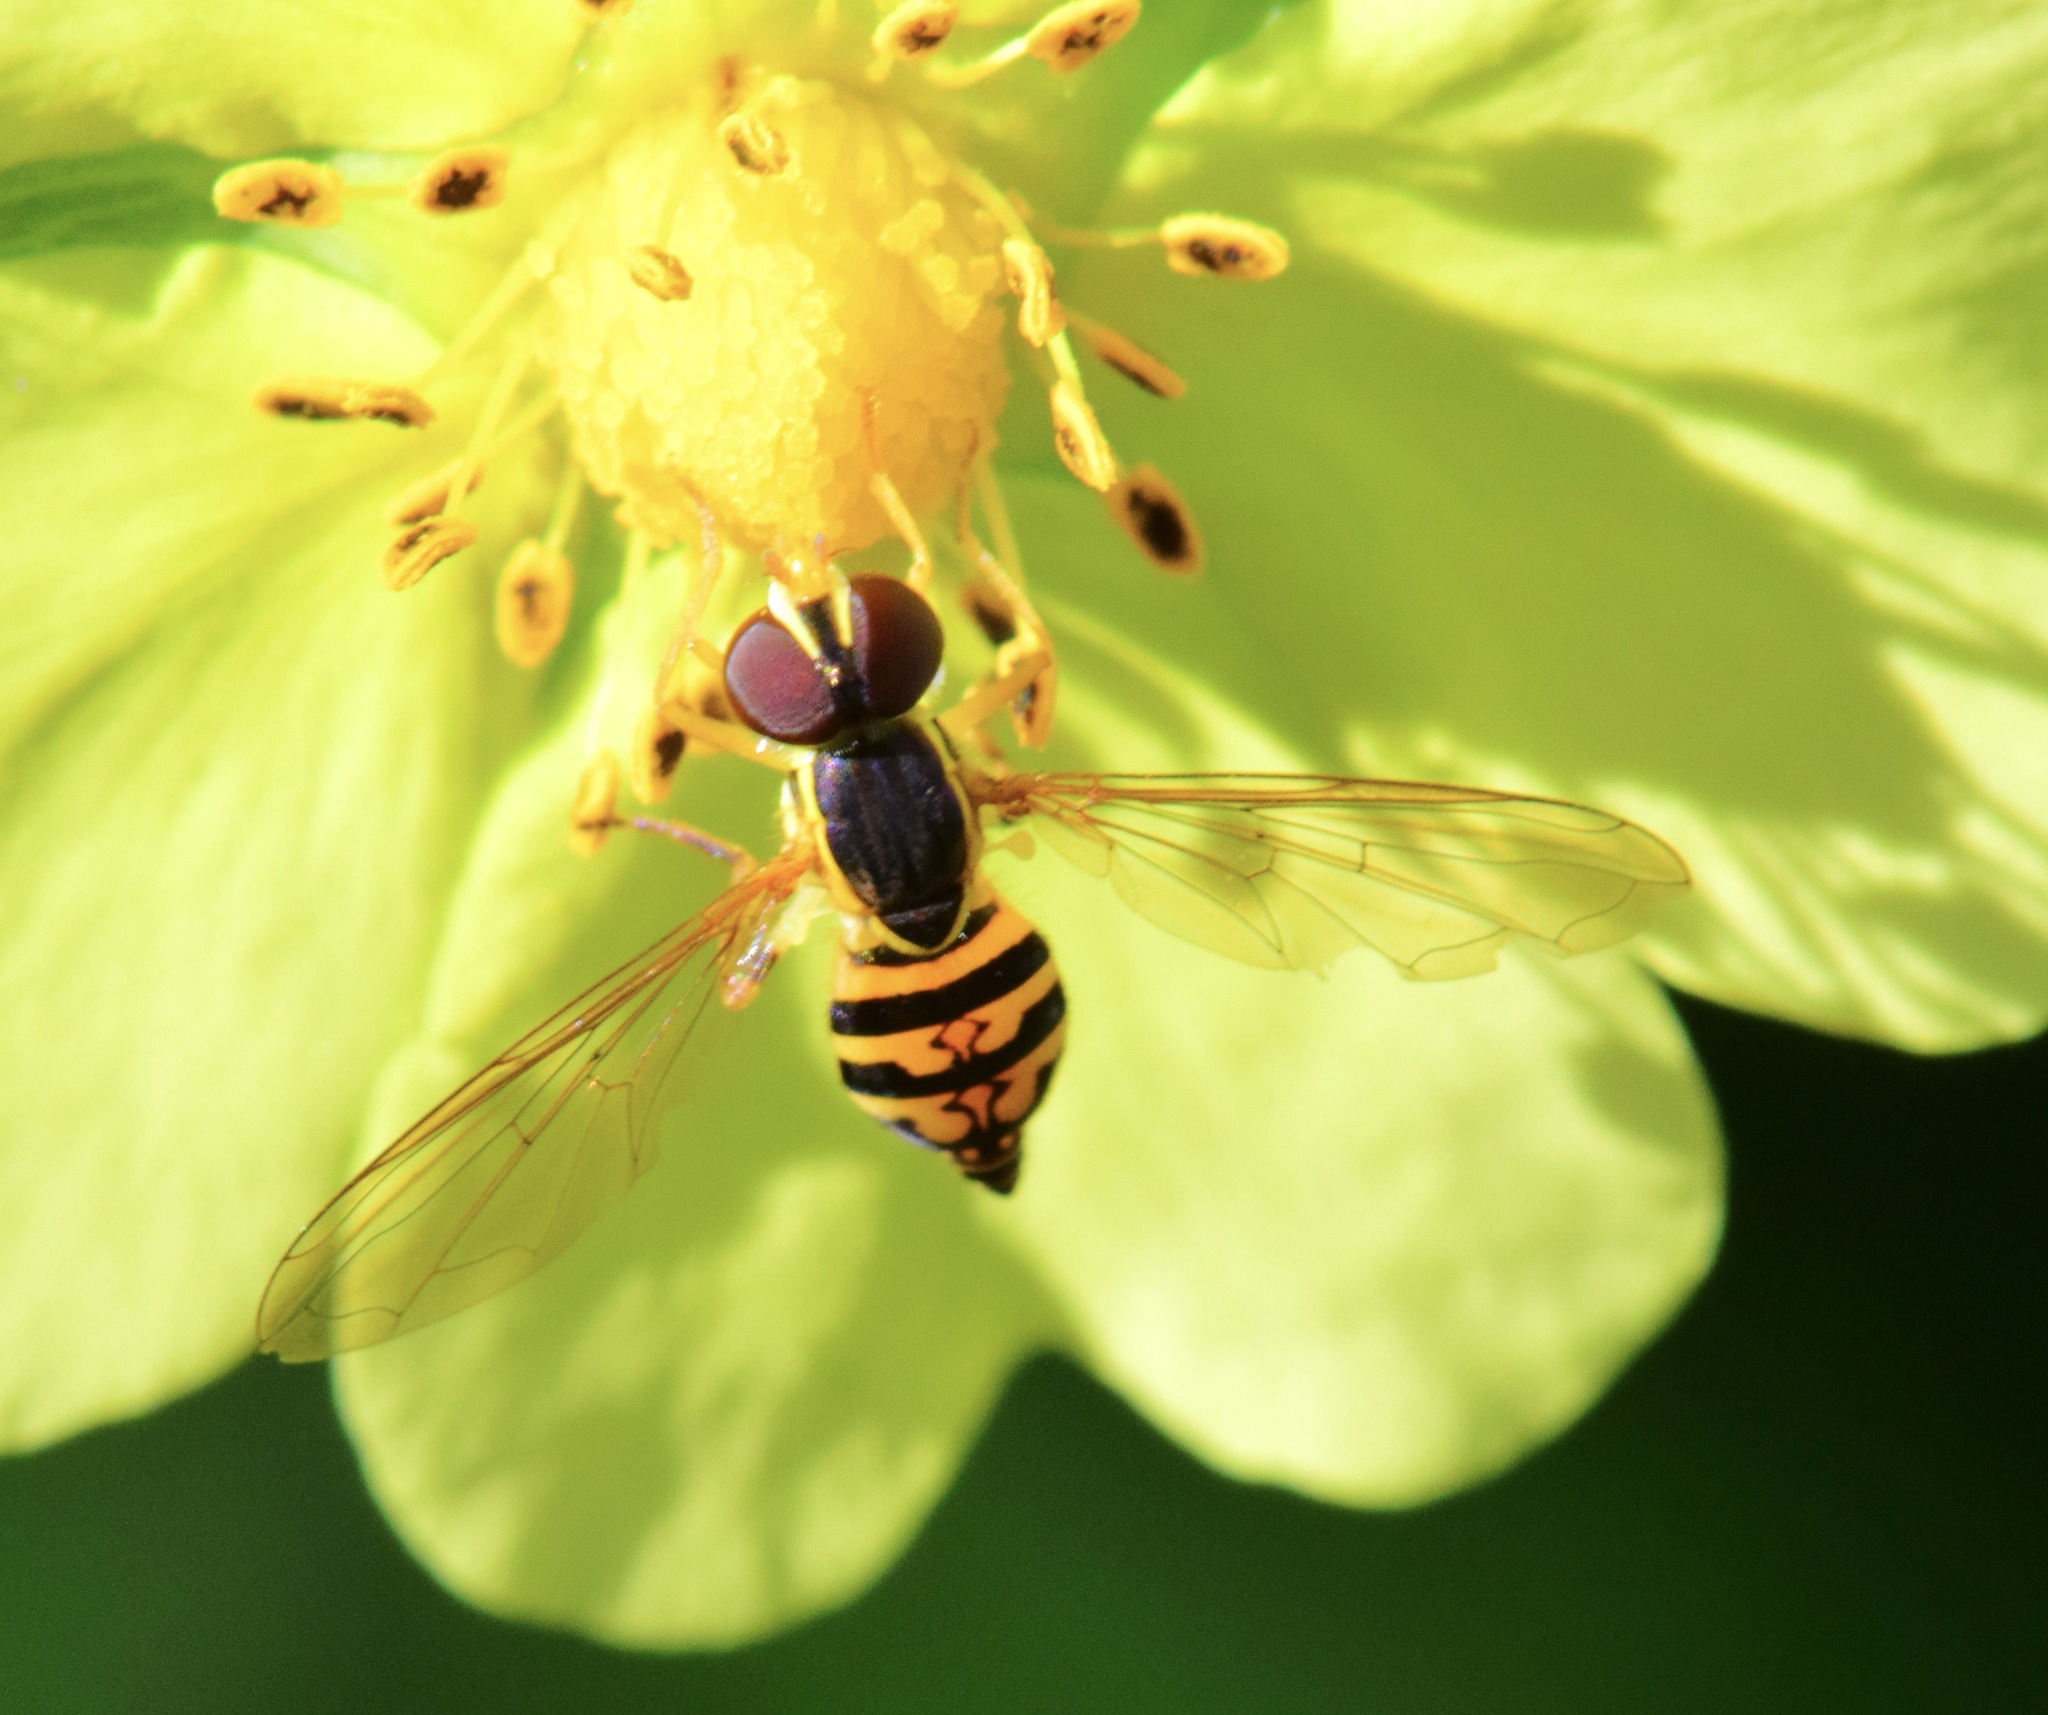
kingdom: Animalia
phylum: Arthropoda
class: Insecta
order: Diptera
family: Syrphidae
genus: Toxomerus
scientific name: Toxomerus geminatus
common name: Eastern calligrapher
